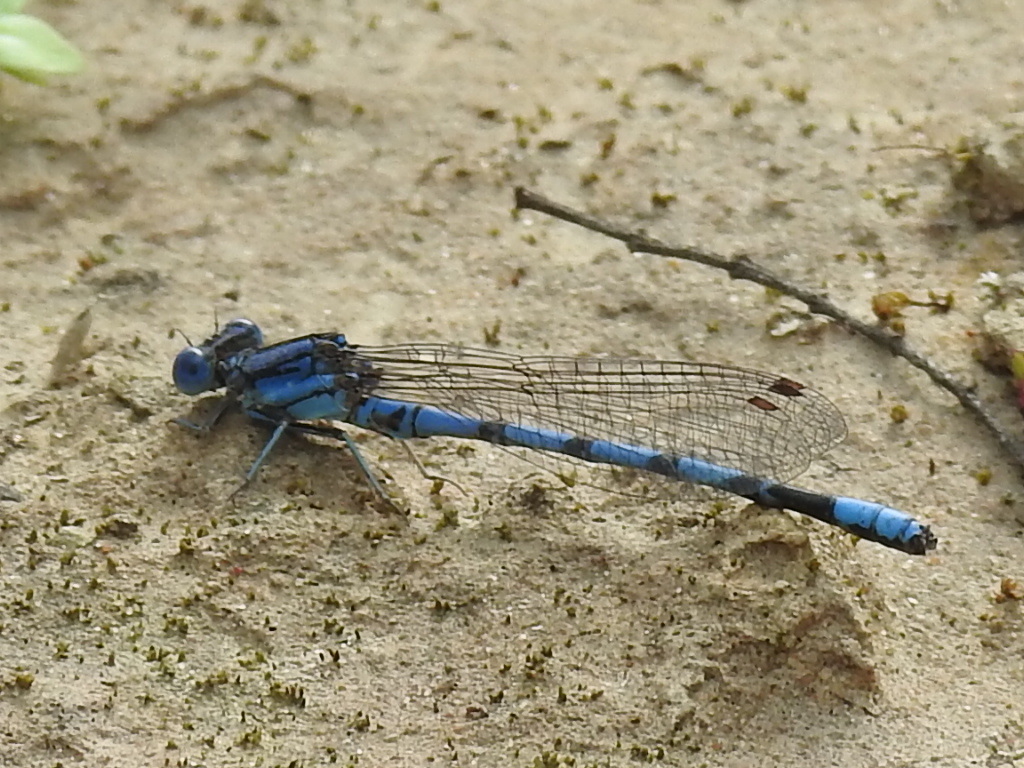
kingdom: Animalia
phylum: Arthropoda
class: Insecta
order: Odonata
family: Coenagrionidae
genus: Argia
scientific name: Argia nahuana
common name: Aztec dancer
